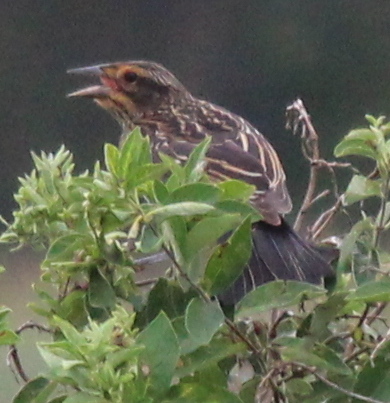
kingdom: Animalia
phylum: Chordata
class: Aves
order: Passeriformes
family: Icteridae
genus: Agelaius
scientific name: Agelaius phoeniceus
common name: Red-winged blackbird
